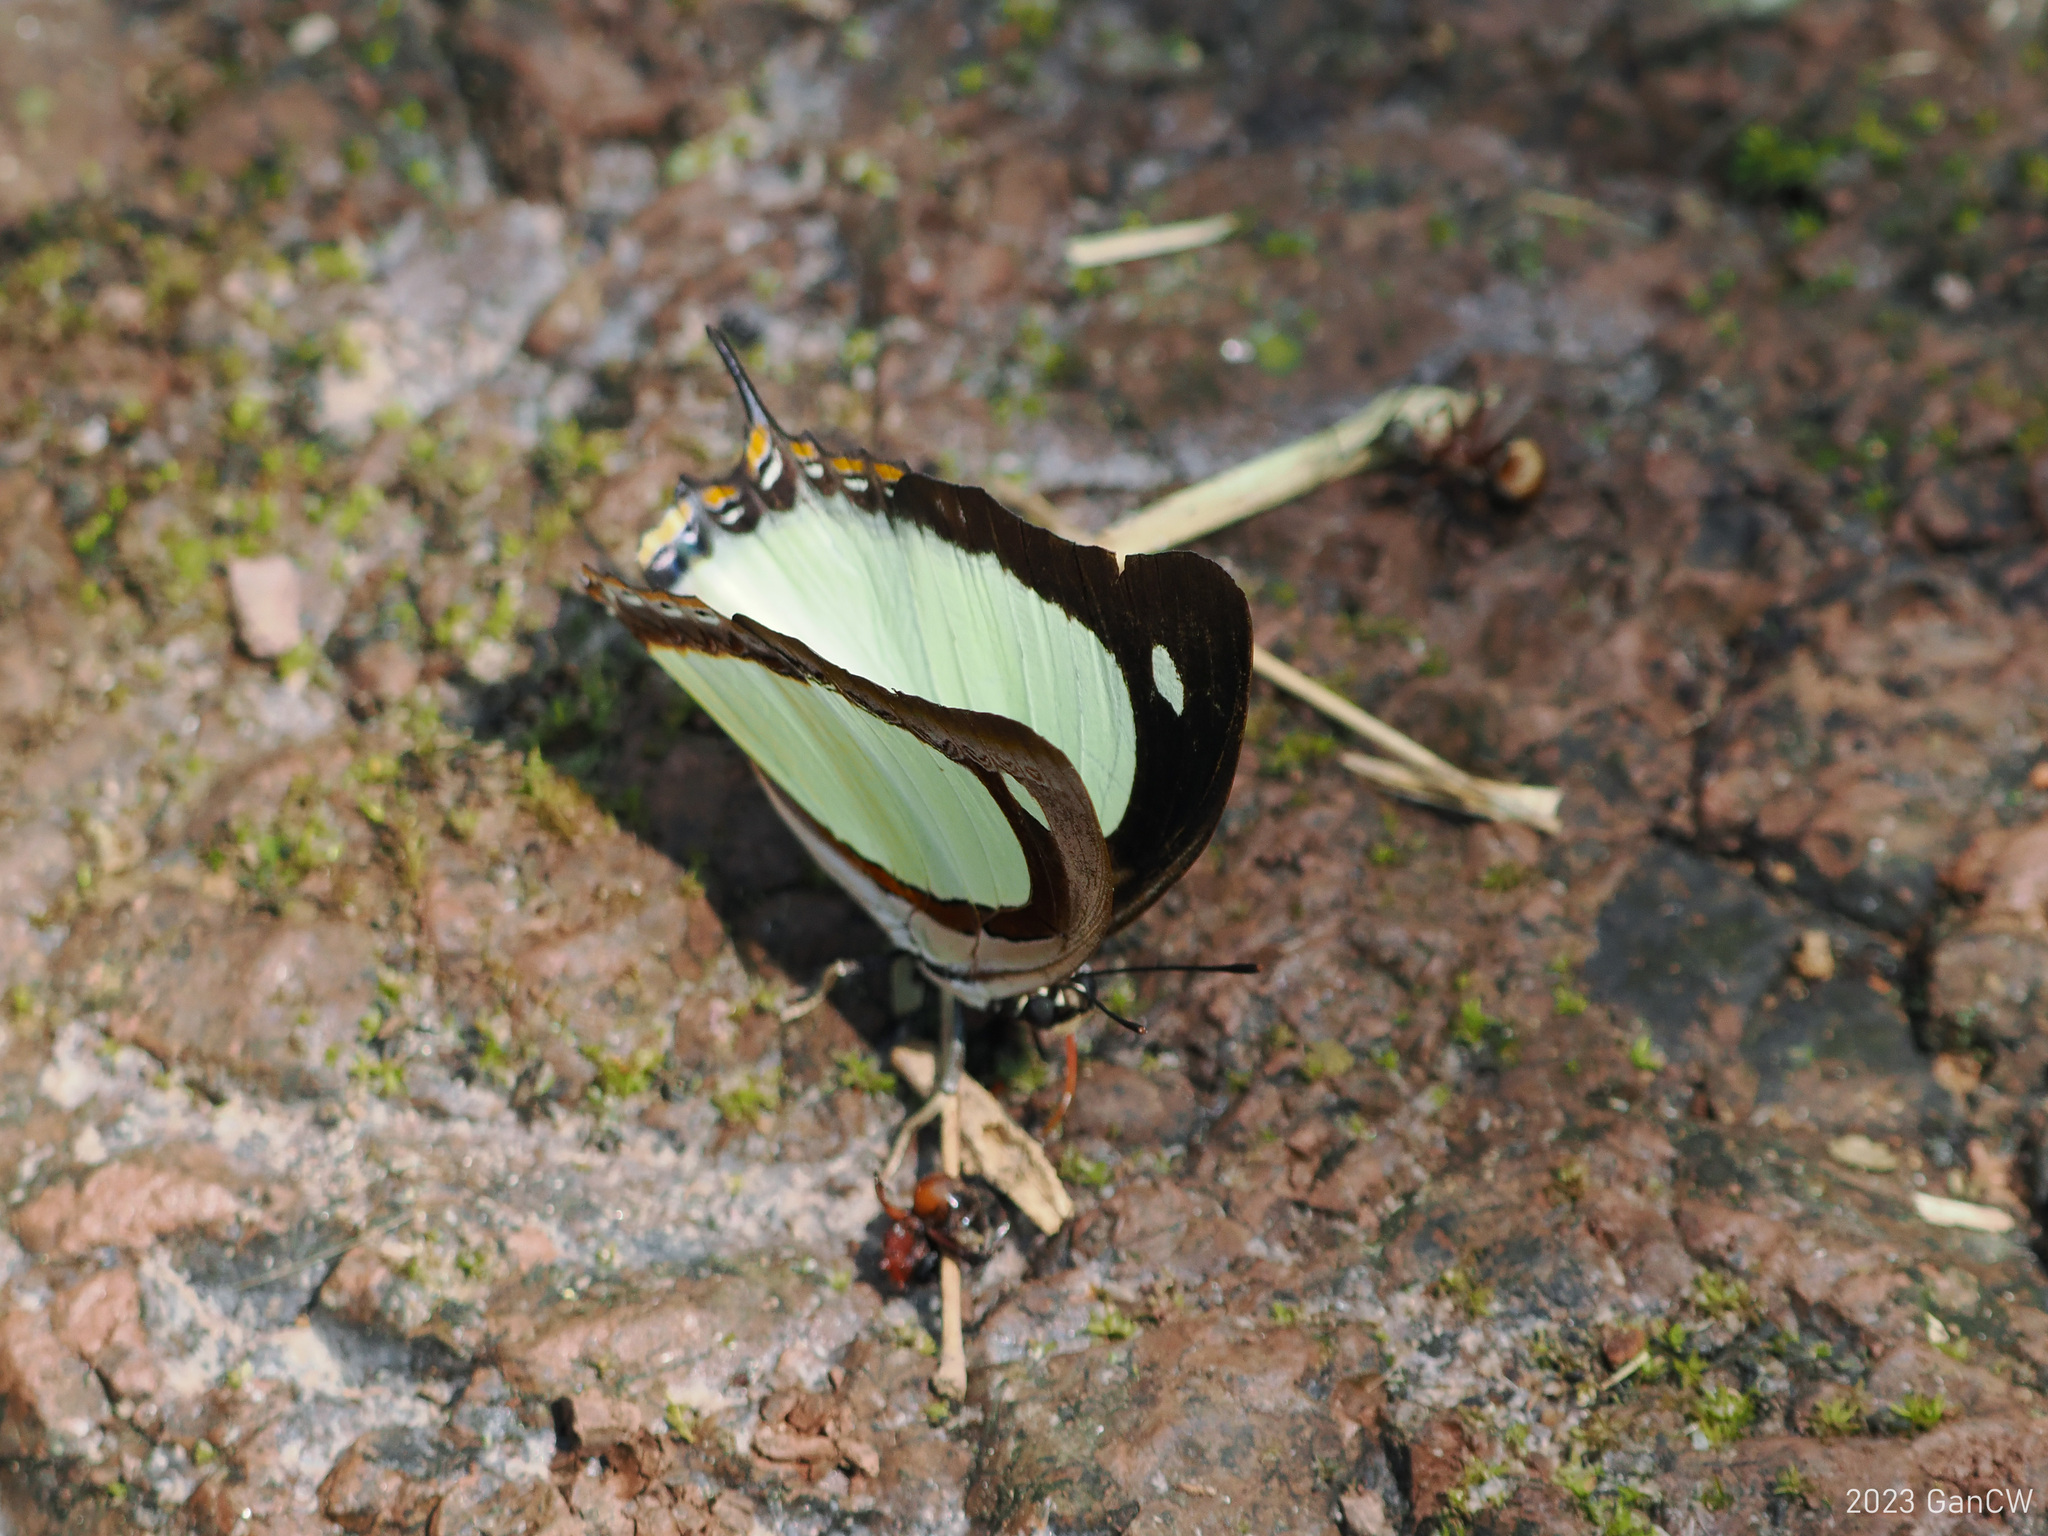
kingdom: Animalia
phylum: Arthropoda
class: Insecta
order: Lepidoptera
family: Nymphalidae
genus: Polyura
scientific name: Polyura jalysus
